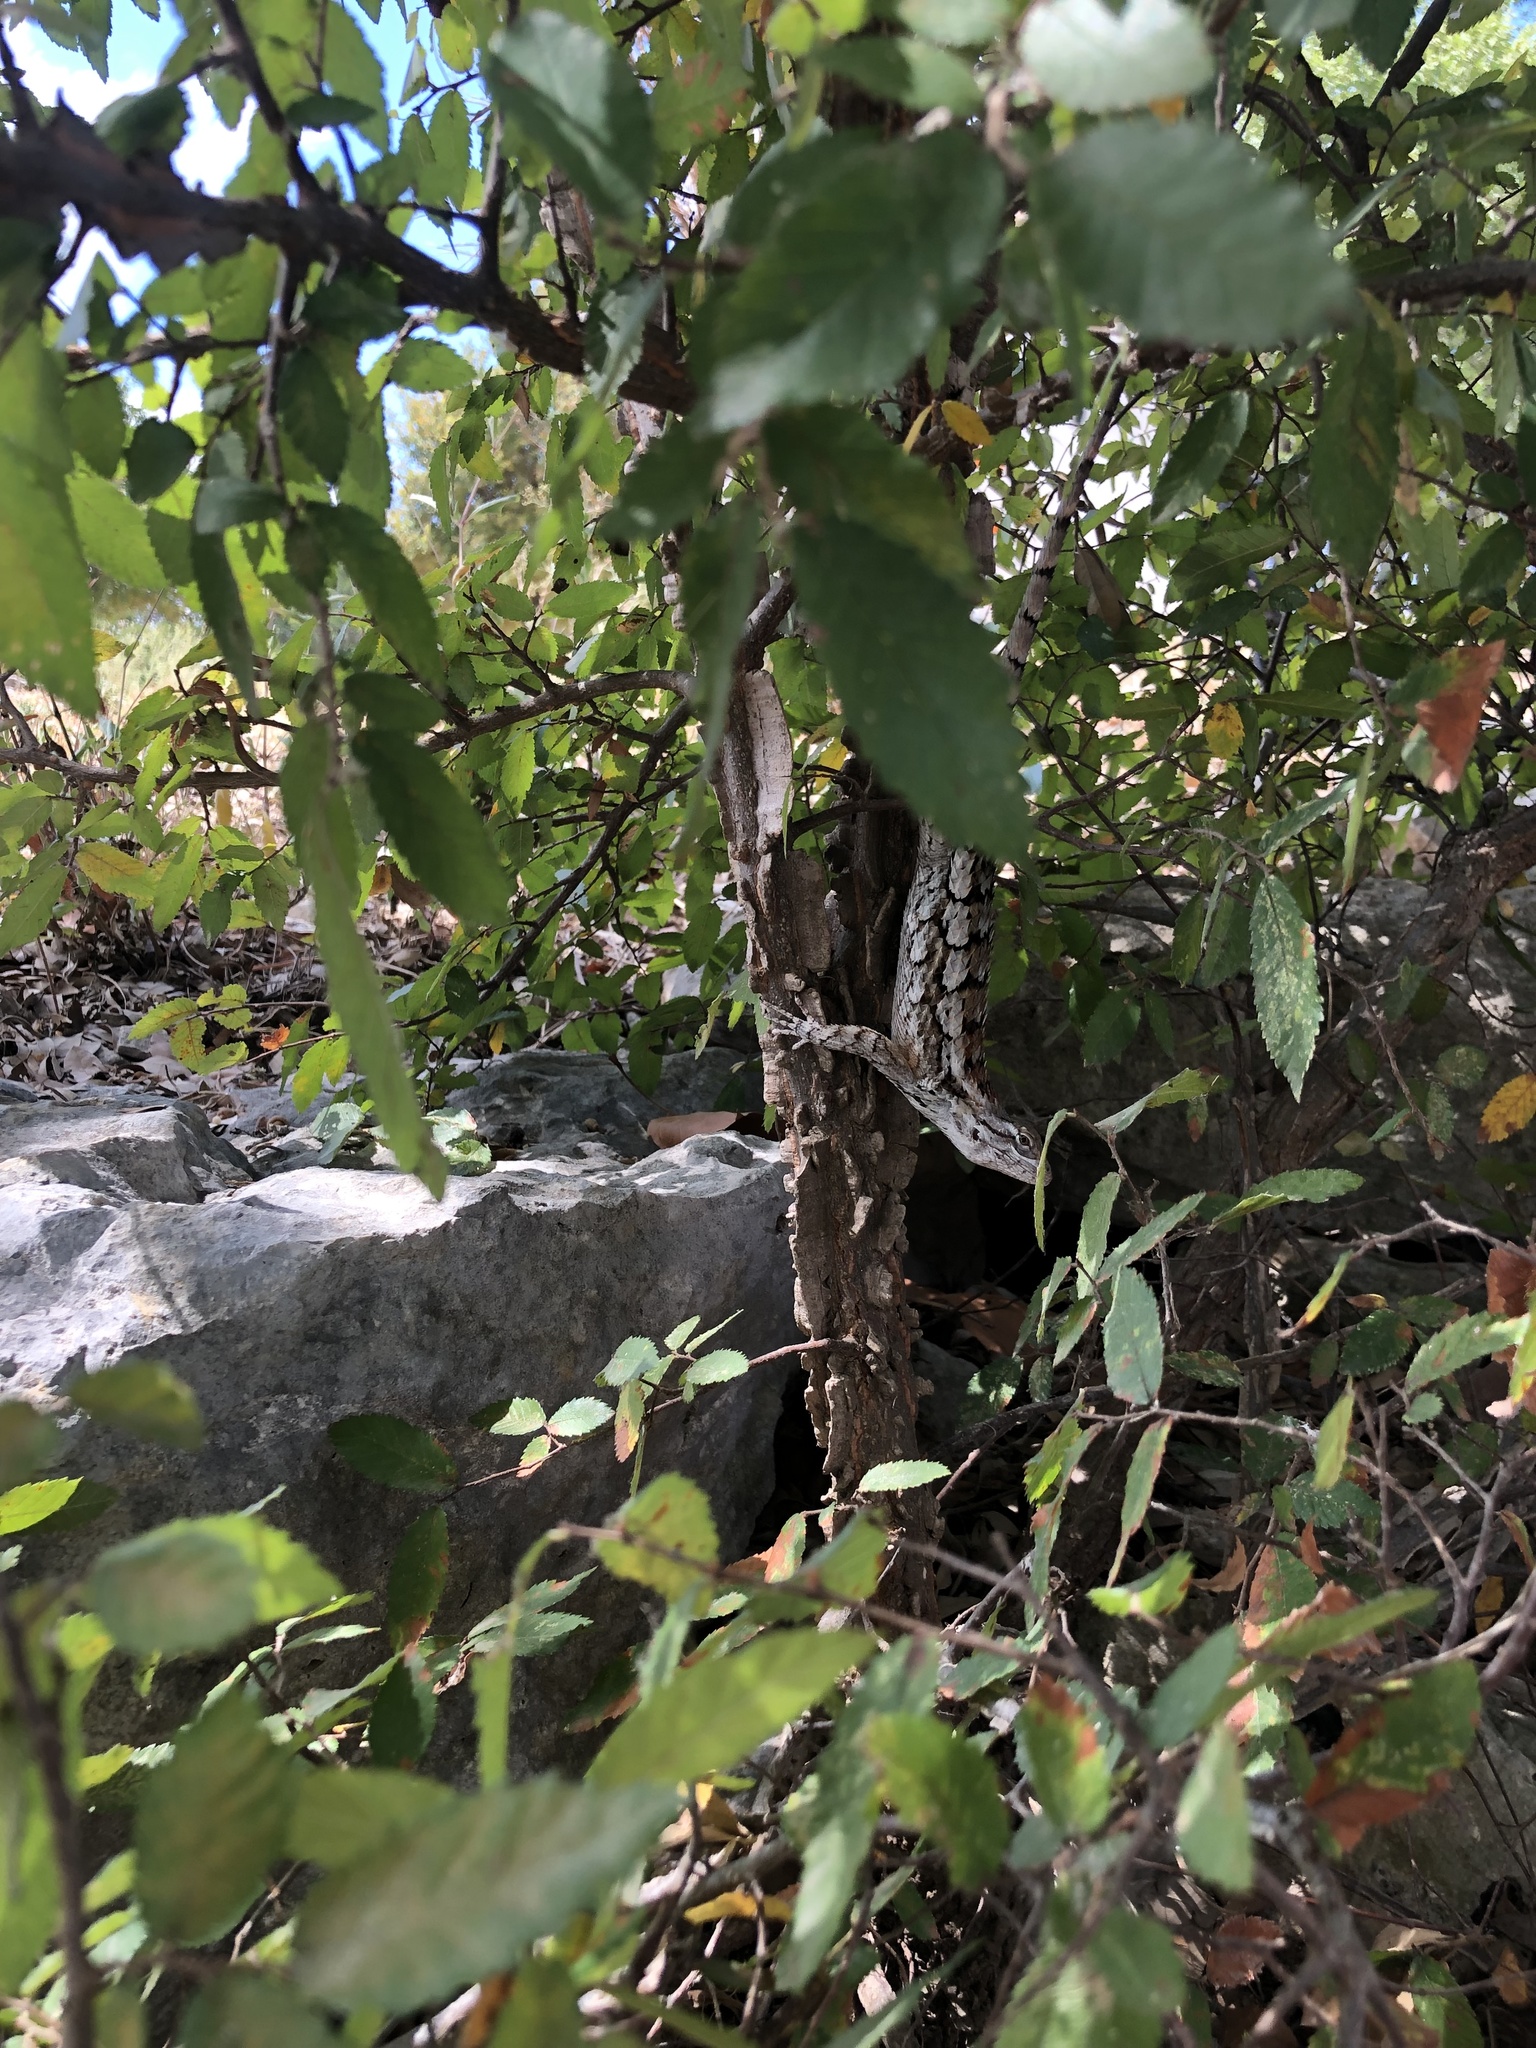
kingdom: Animalia
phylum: Chordata
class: Squamata
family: Phrynosomatidae
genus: Sceloporus
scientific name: Sceloporus olivaceus
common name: Texas spiny lizard
